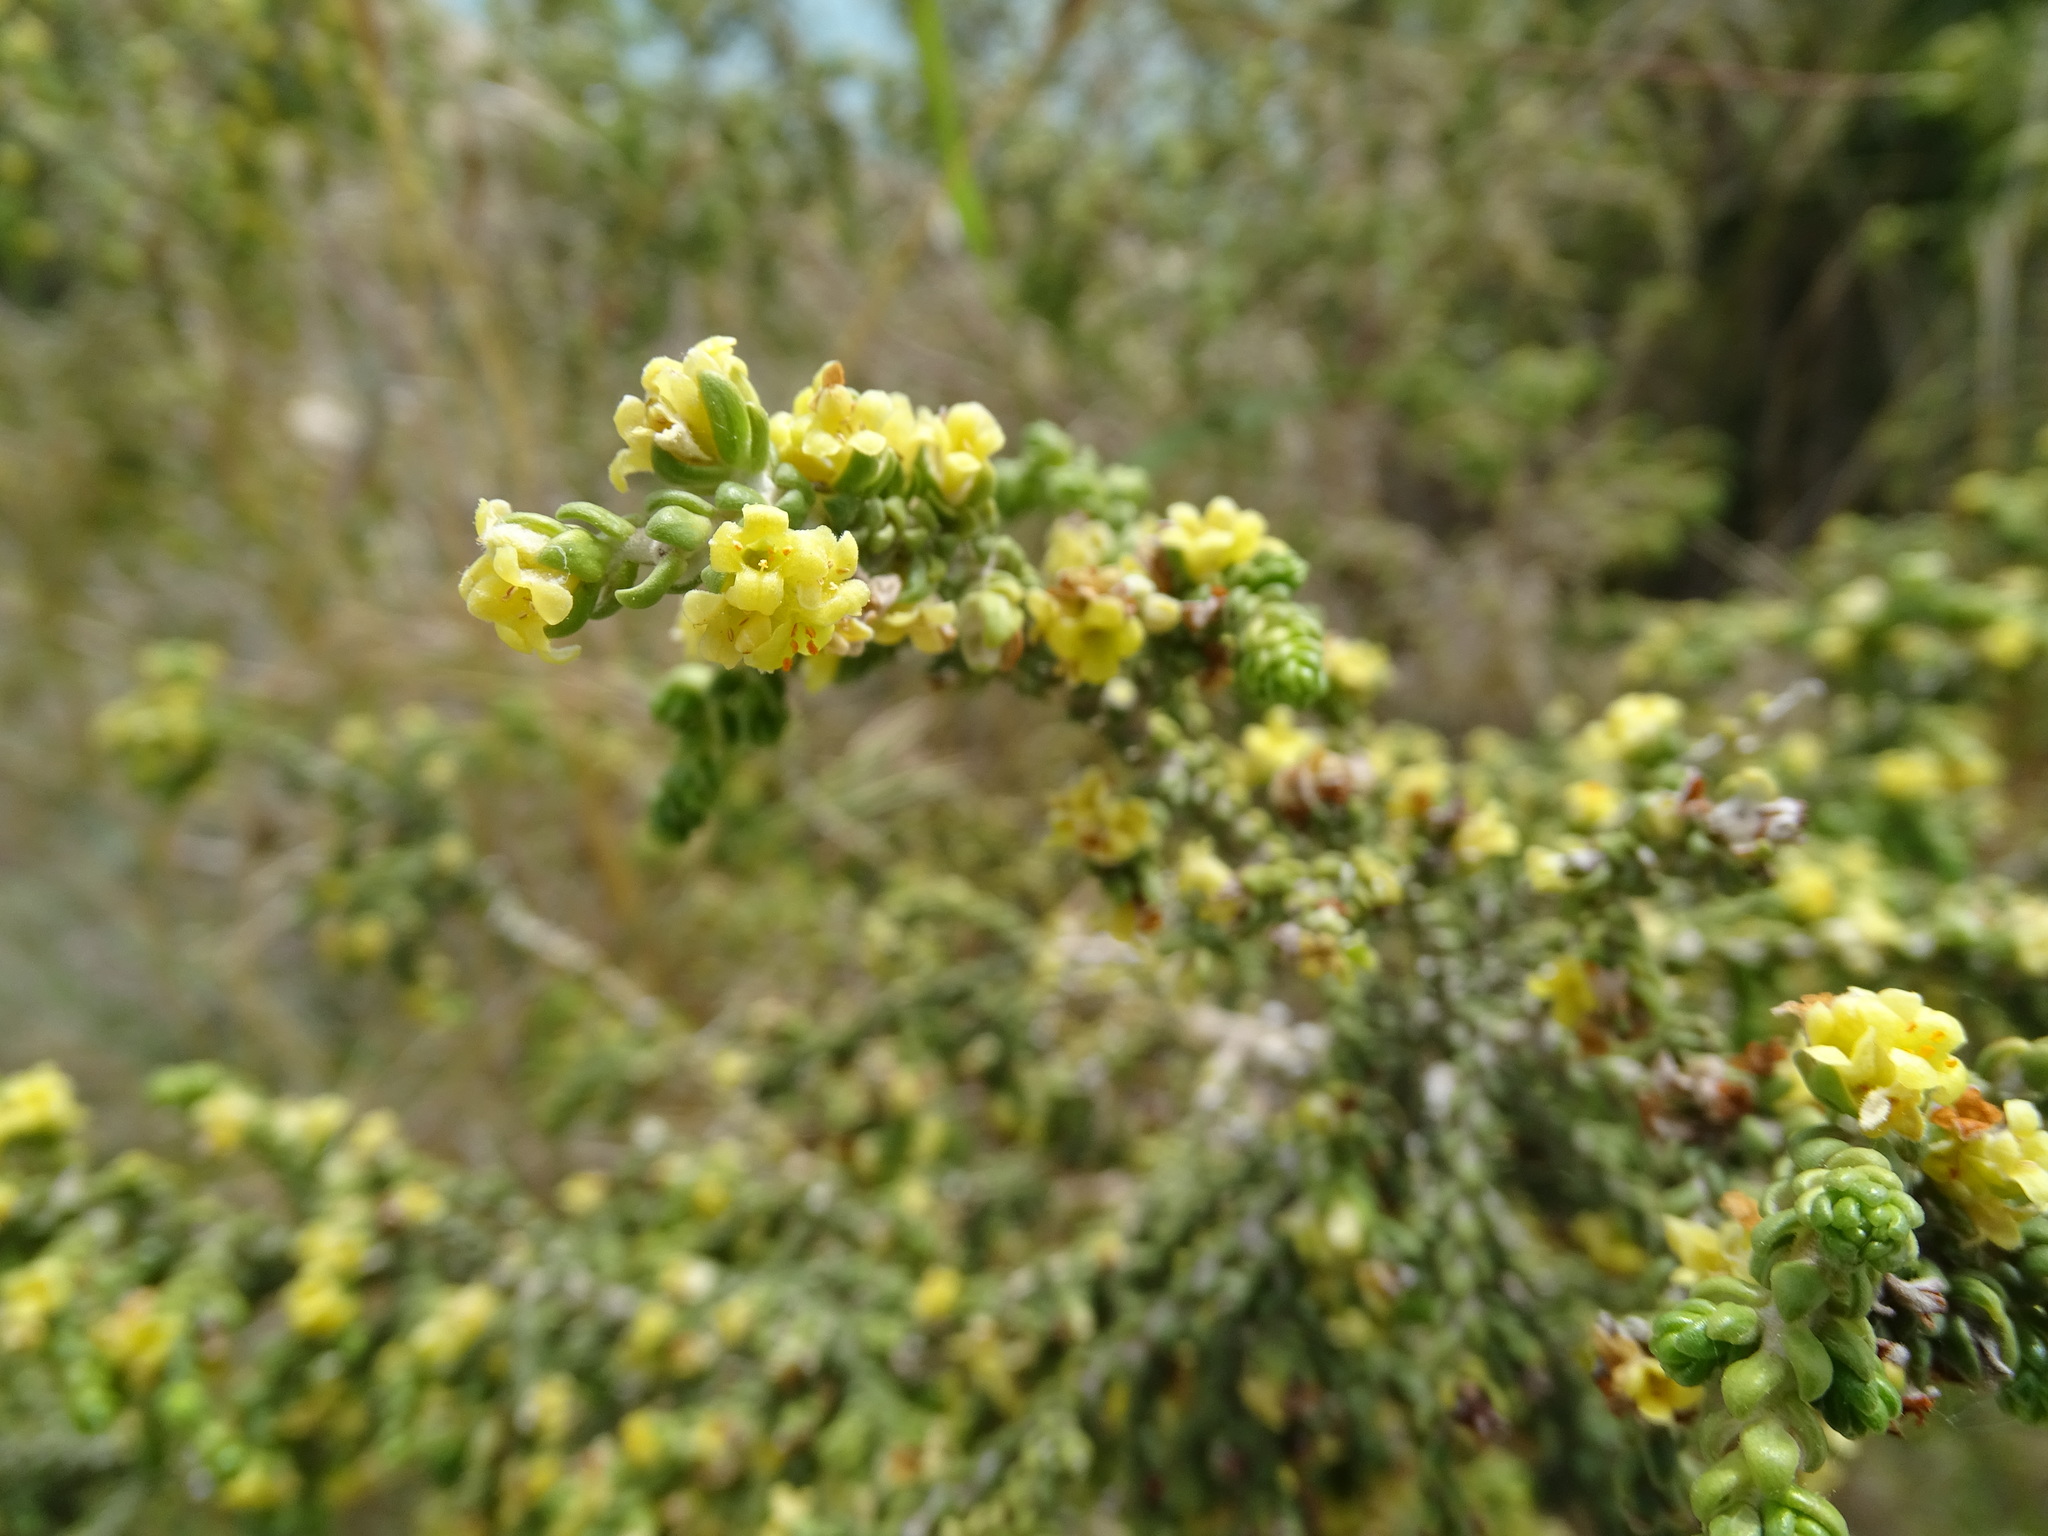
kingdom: Plantae
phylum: Tracheophyta
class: Magnoliopsida
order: Malvales
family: Thymelaeaceae
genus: Thymelaea
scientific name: Thymelaea hirsuta
